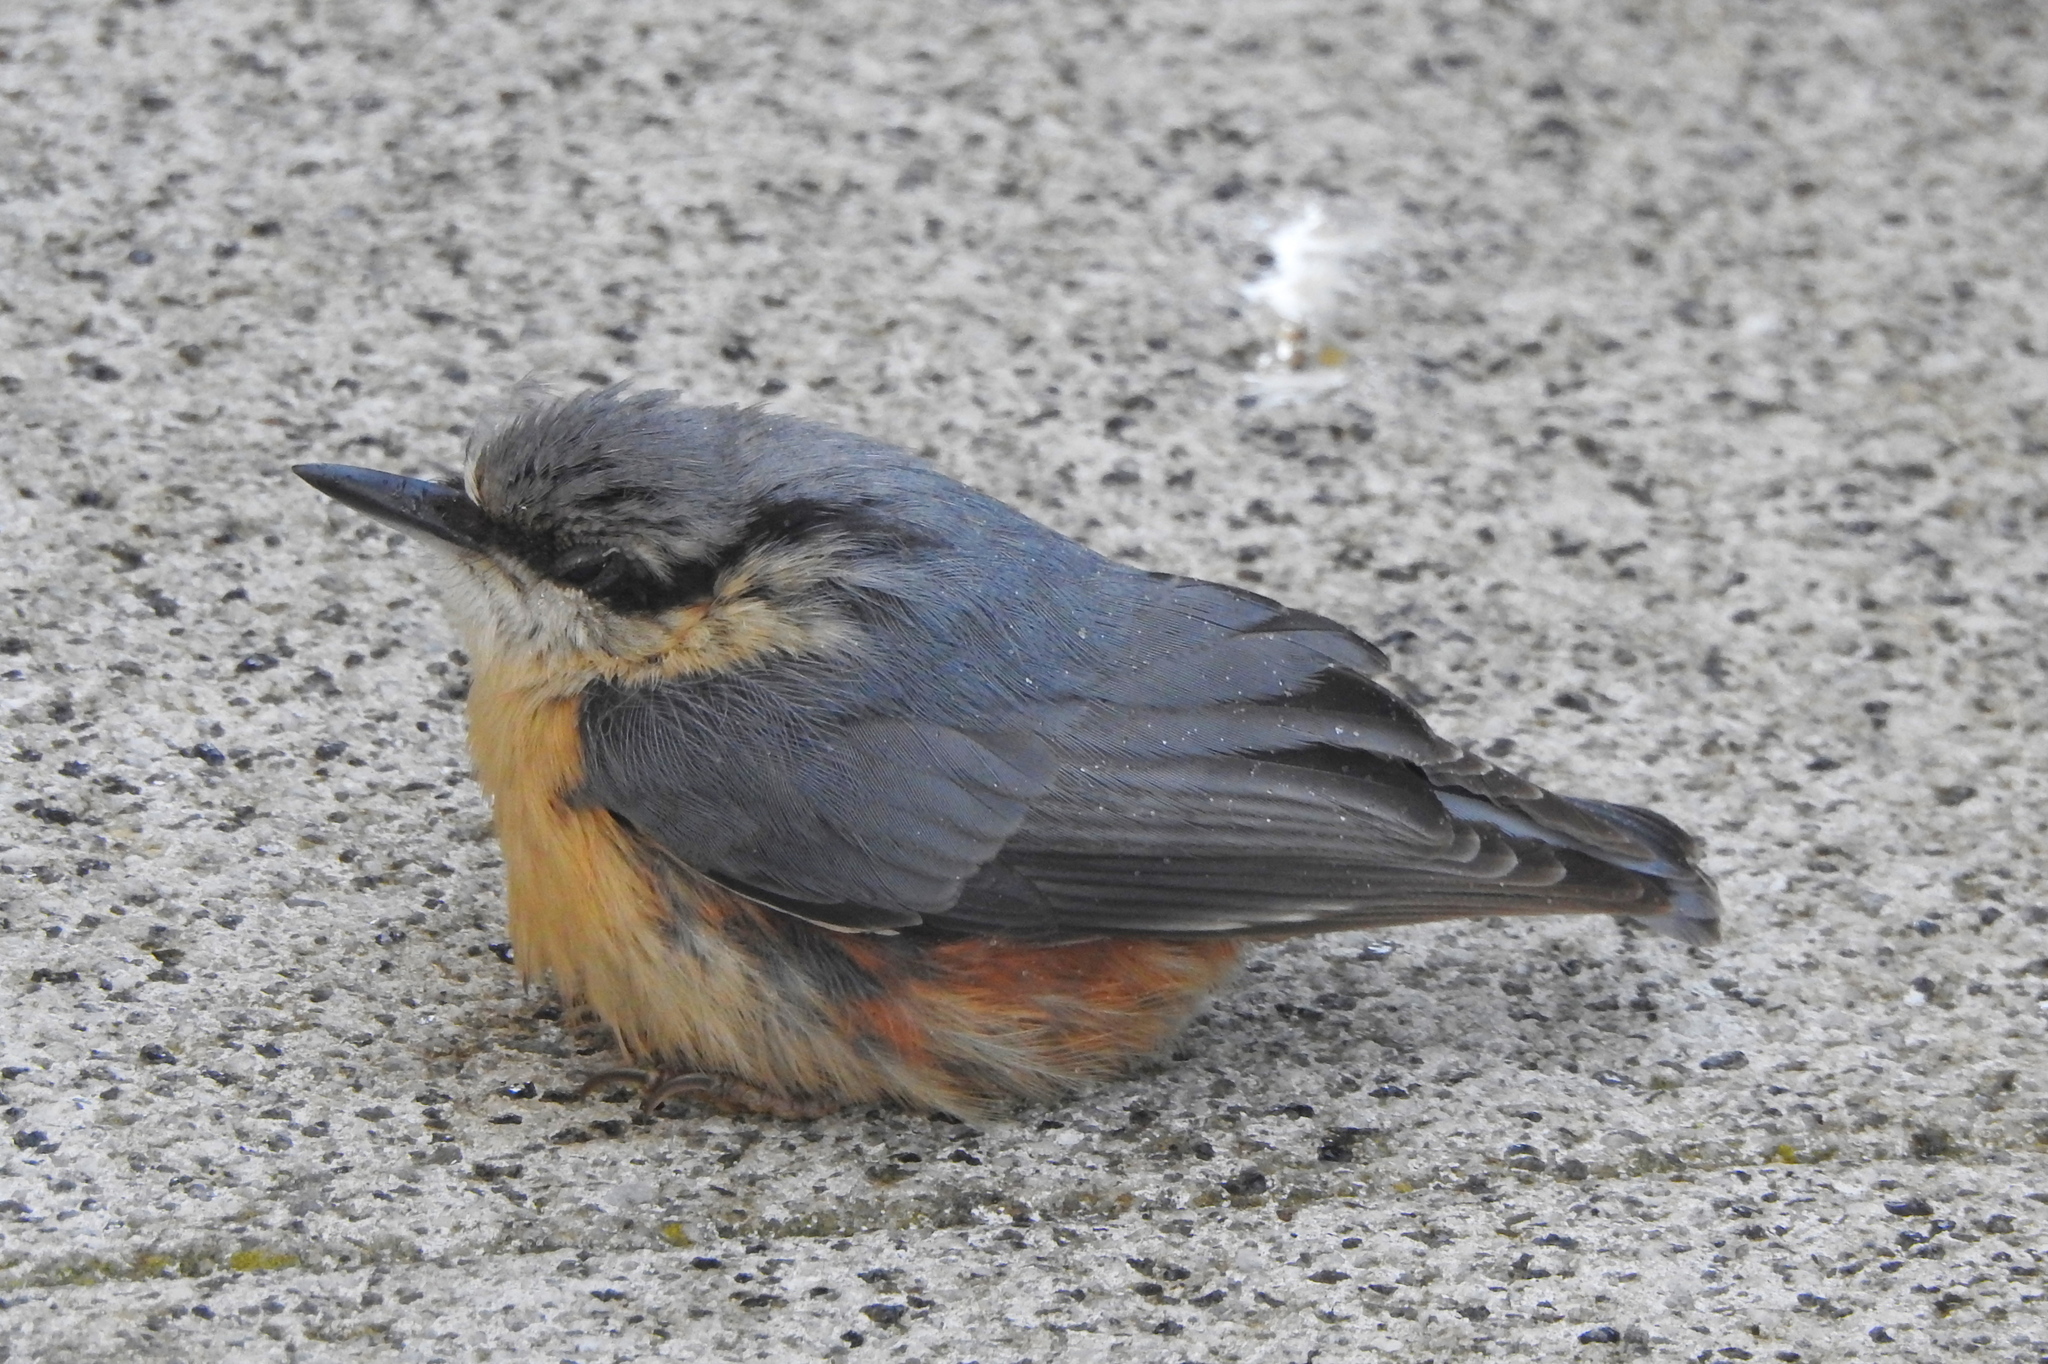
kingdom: Animalia
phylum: Chordata
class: Aves
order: Passeriformes
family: Sittidae
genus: Sitta
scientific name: Sitta europaea
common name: Eurasian nuthatch
